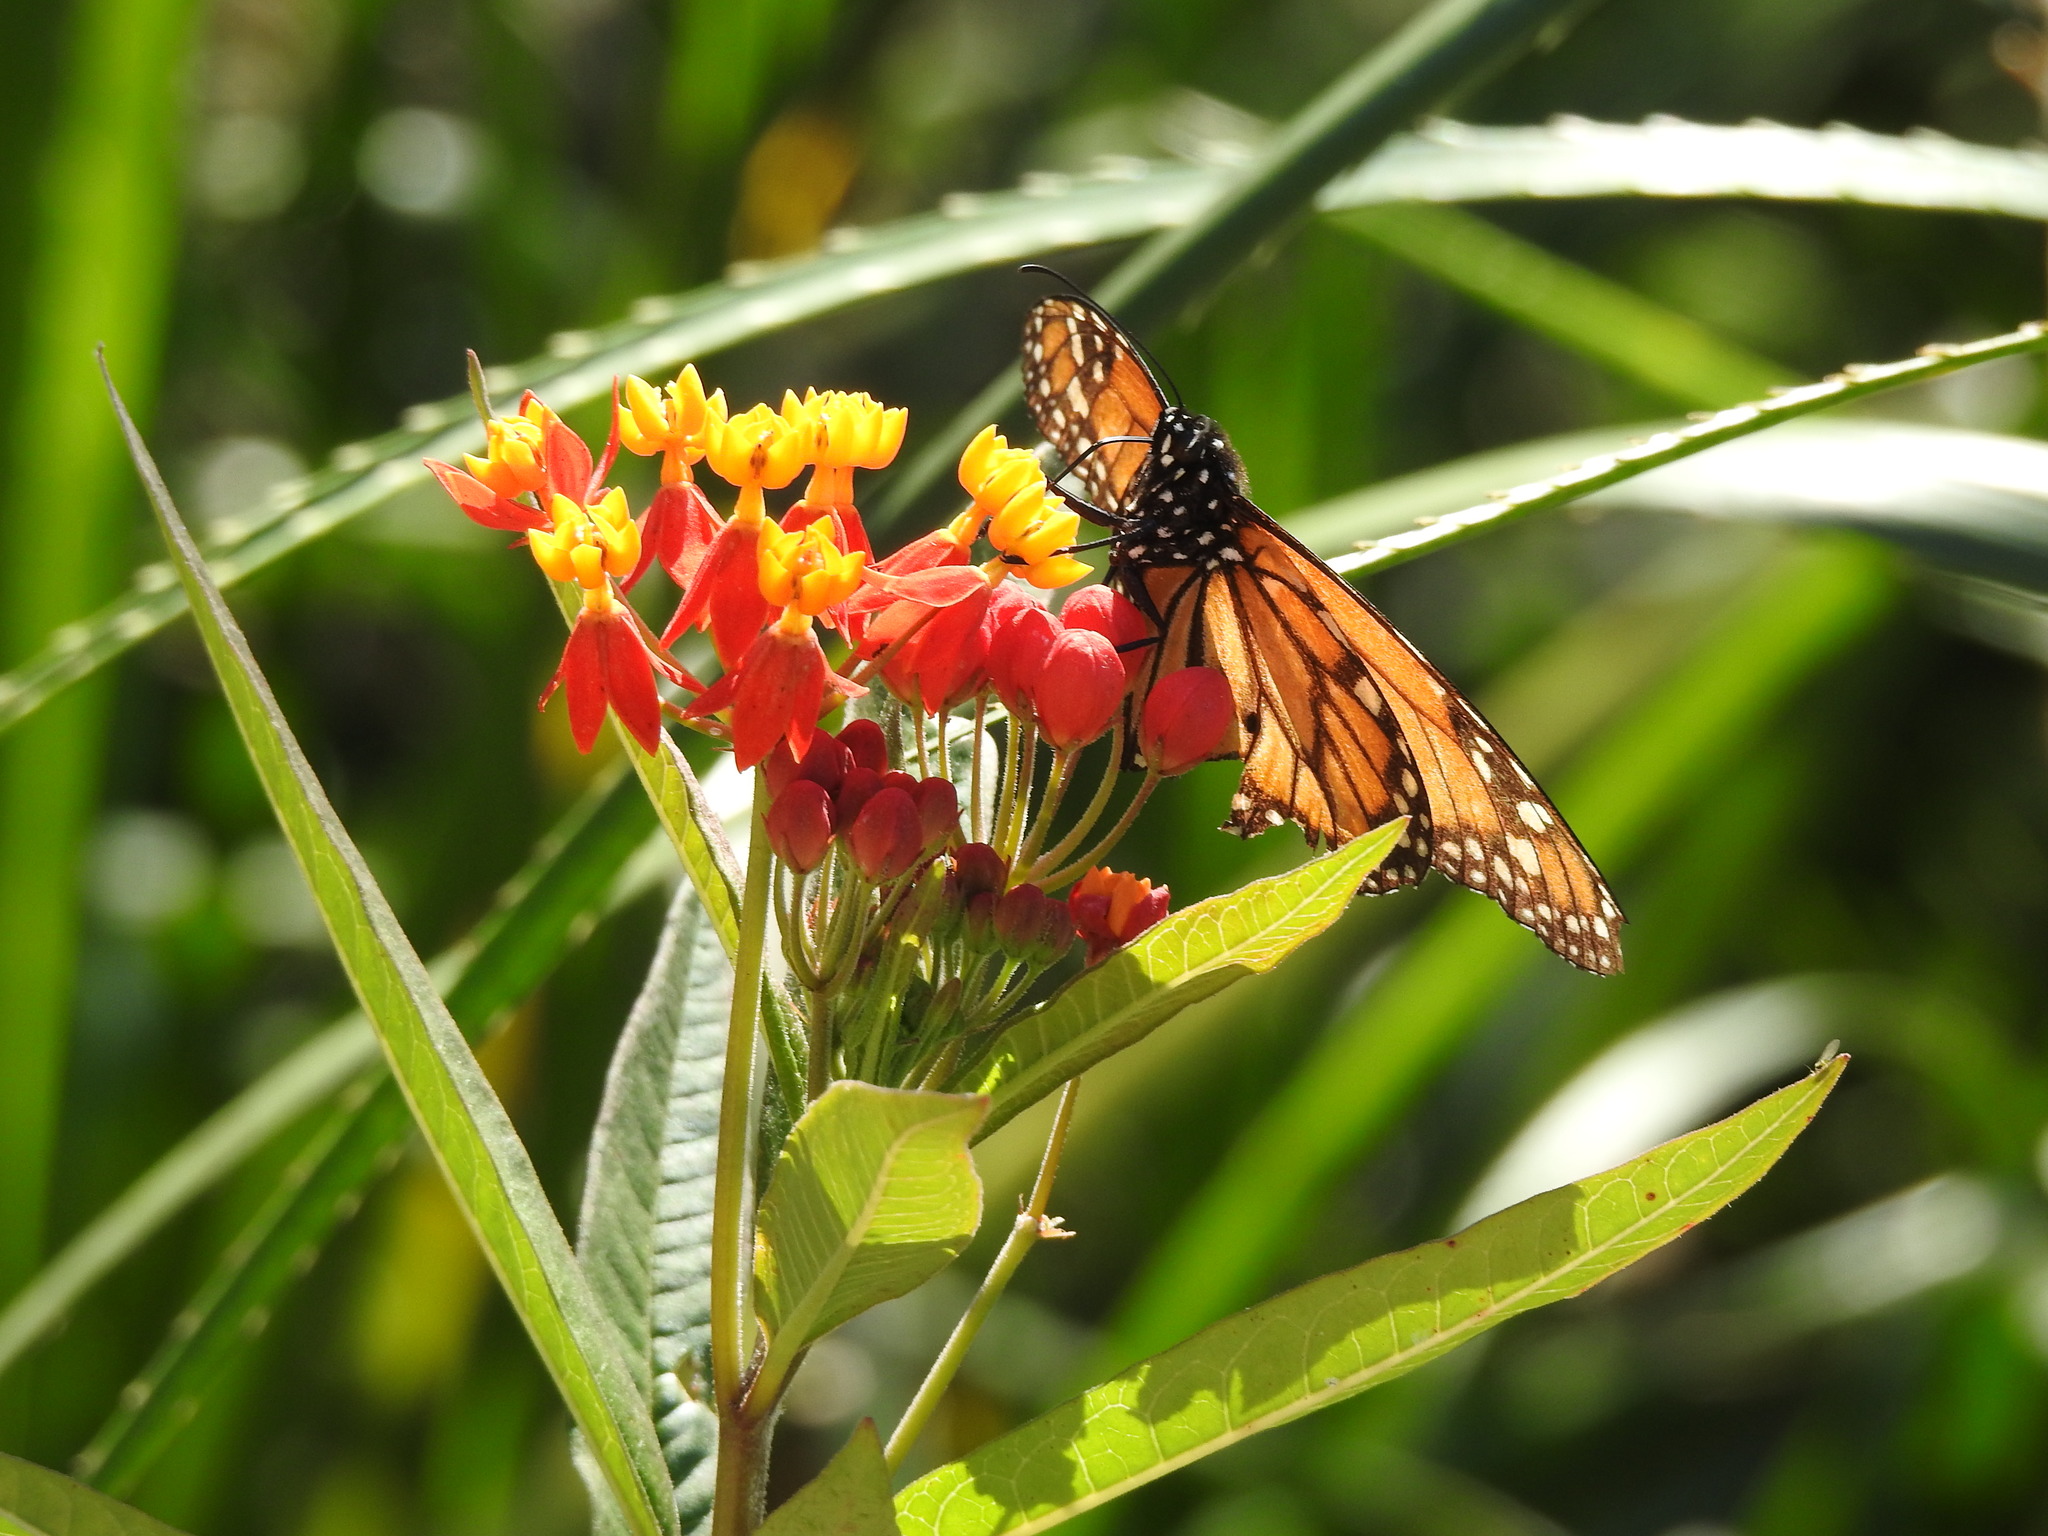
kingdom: Animalia
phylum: Arthropoda
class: Insecta
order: Lepidoptera
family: Nymphalidae
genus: Danaus
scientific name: Danaus erippus
